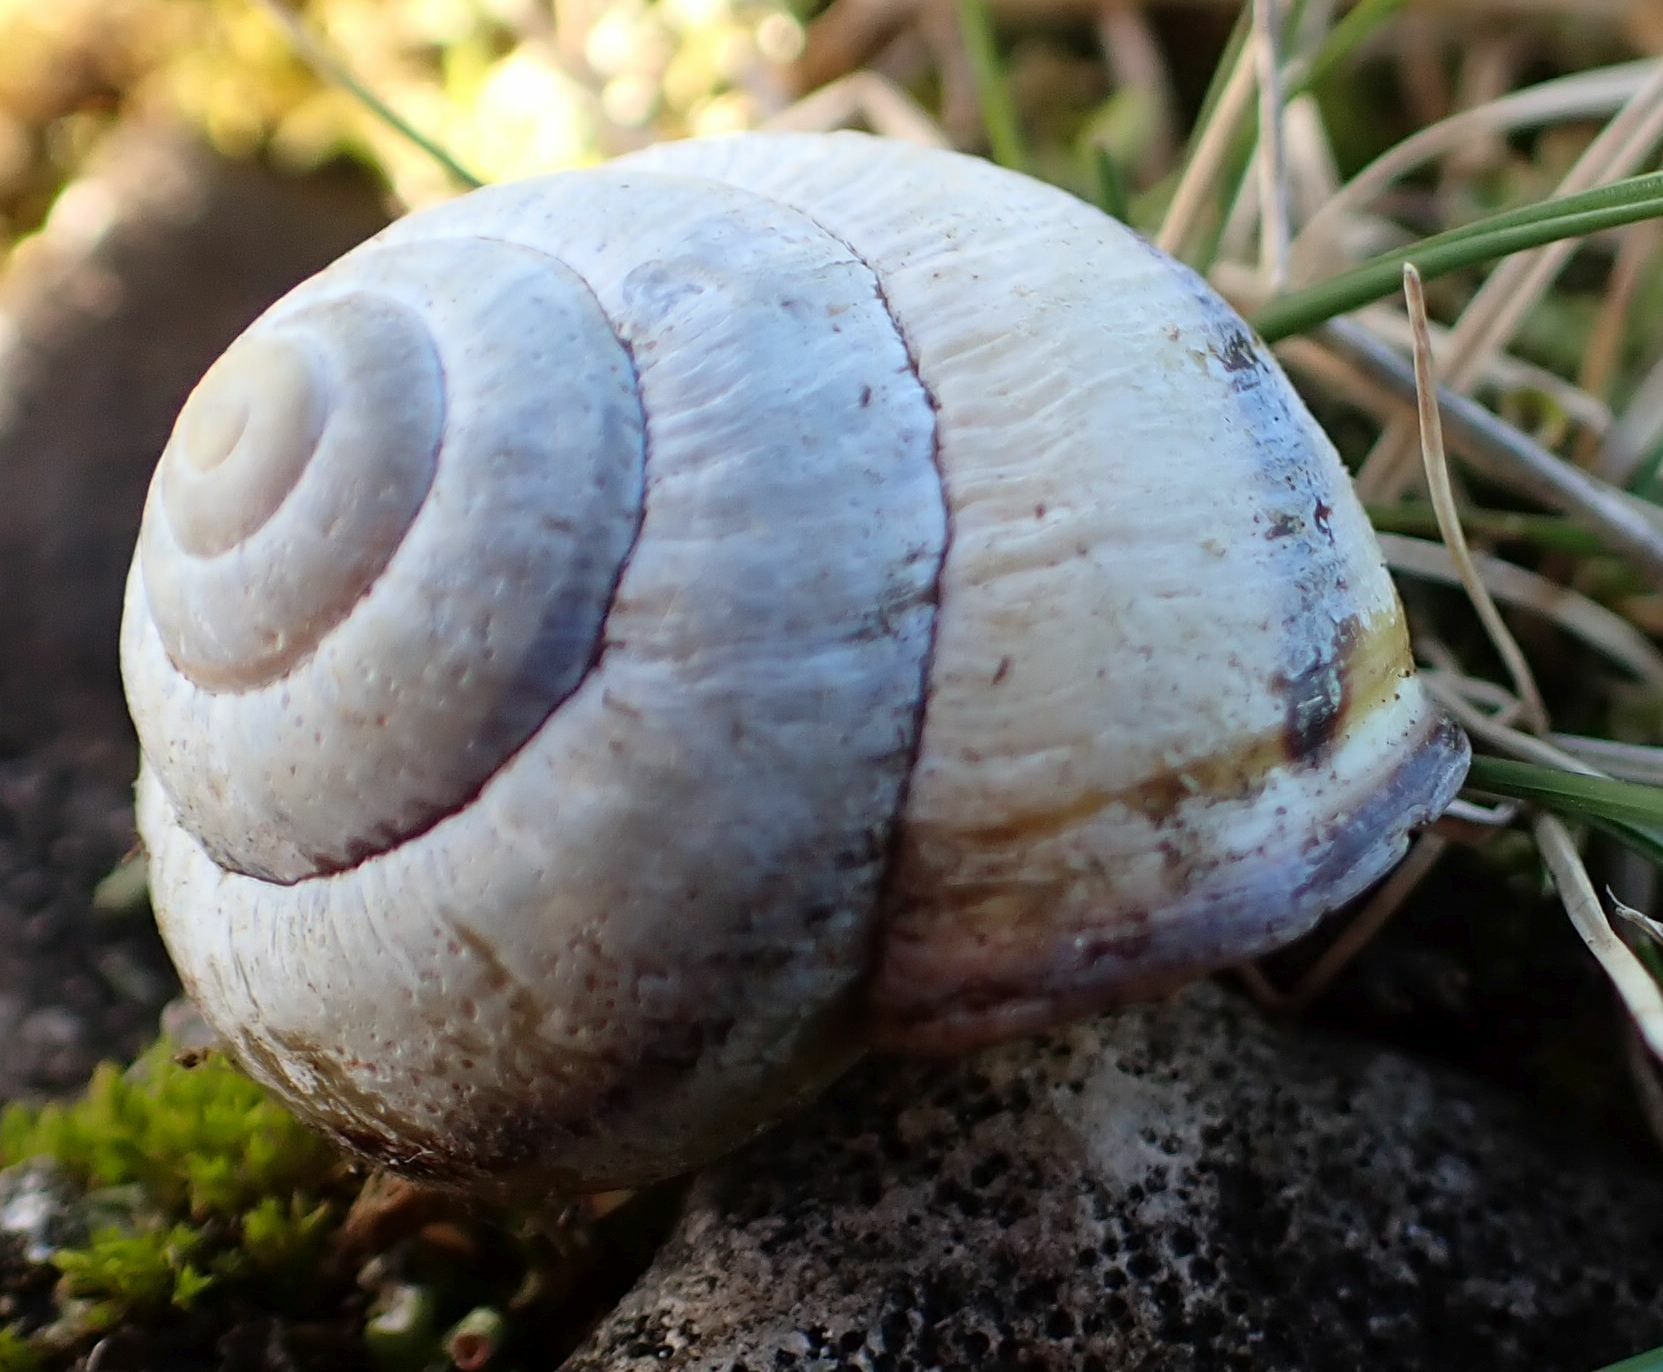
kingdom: Animalia
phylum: Mollusca
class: Gastropoda
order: Stylommatophora
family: Helicidae
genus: Cepaea
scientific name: Cepaea nemoralis
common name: Grovesnail
